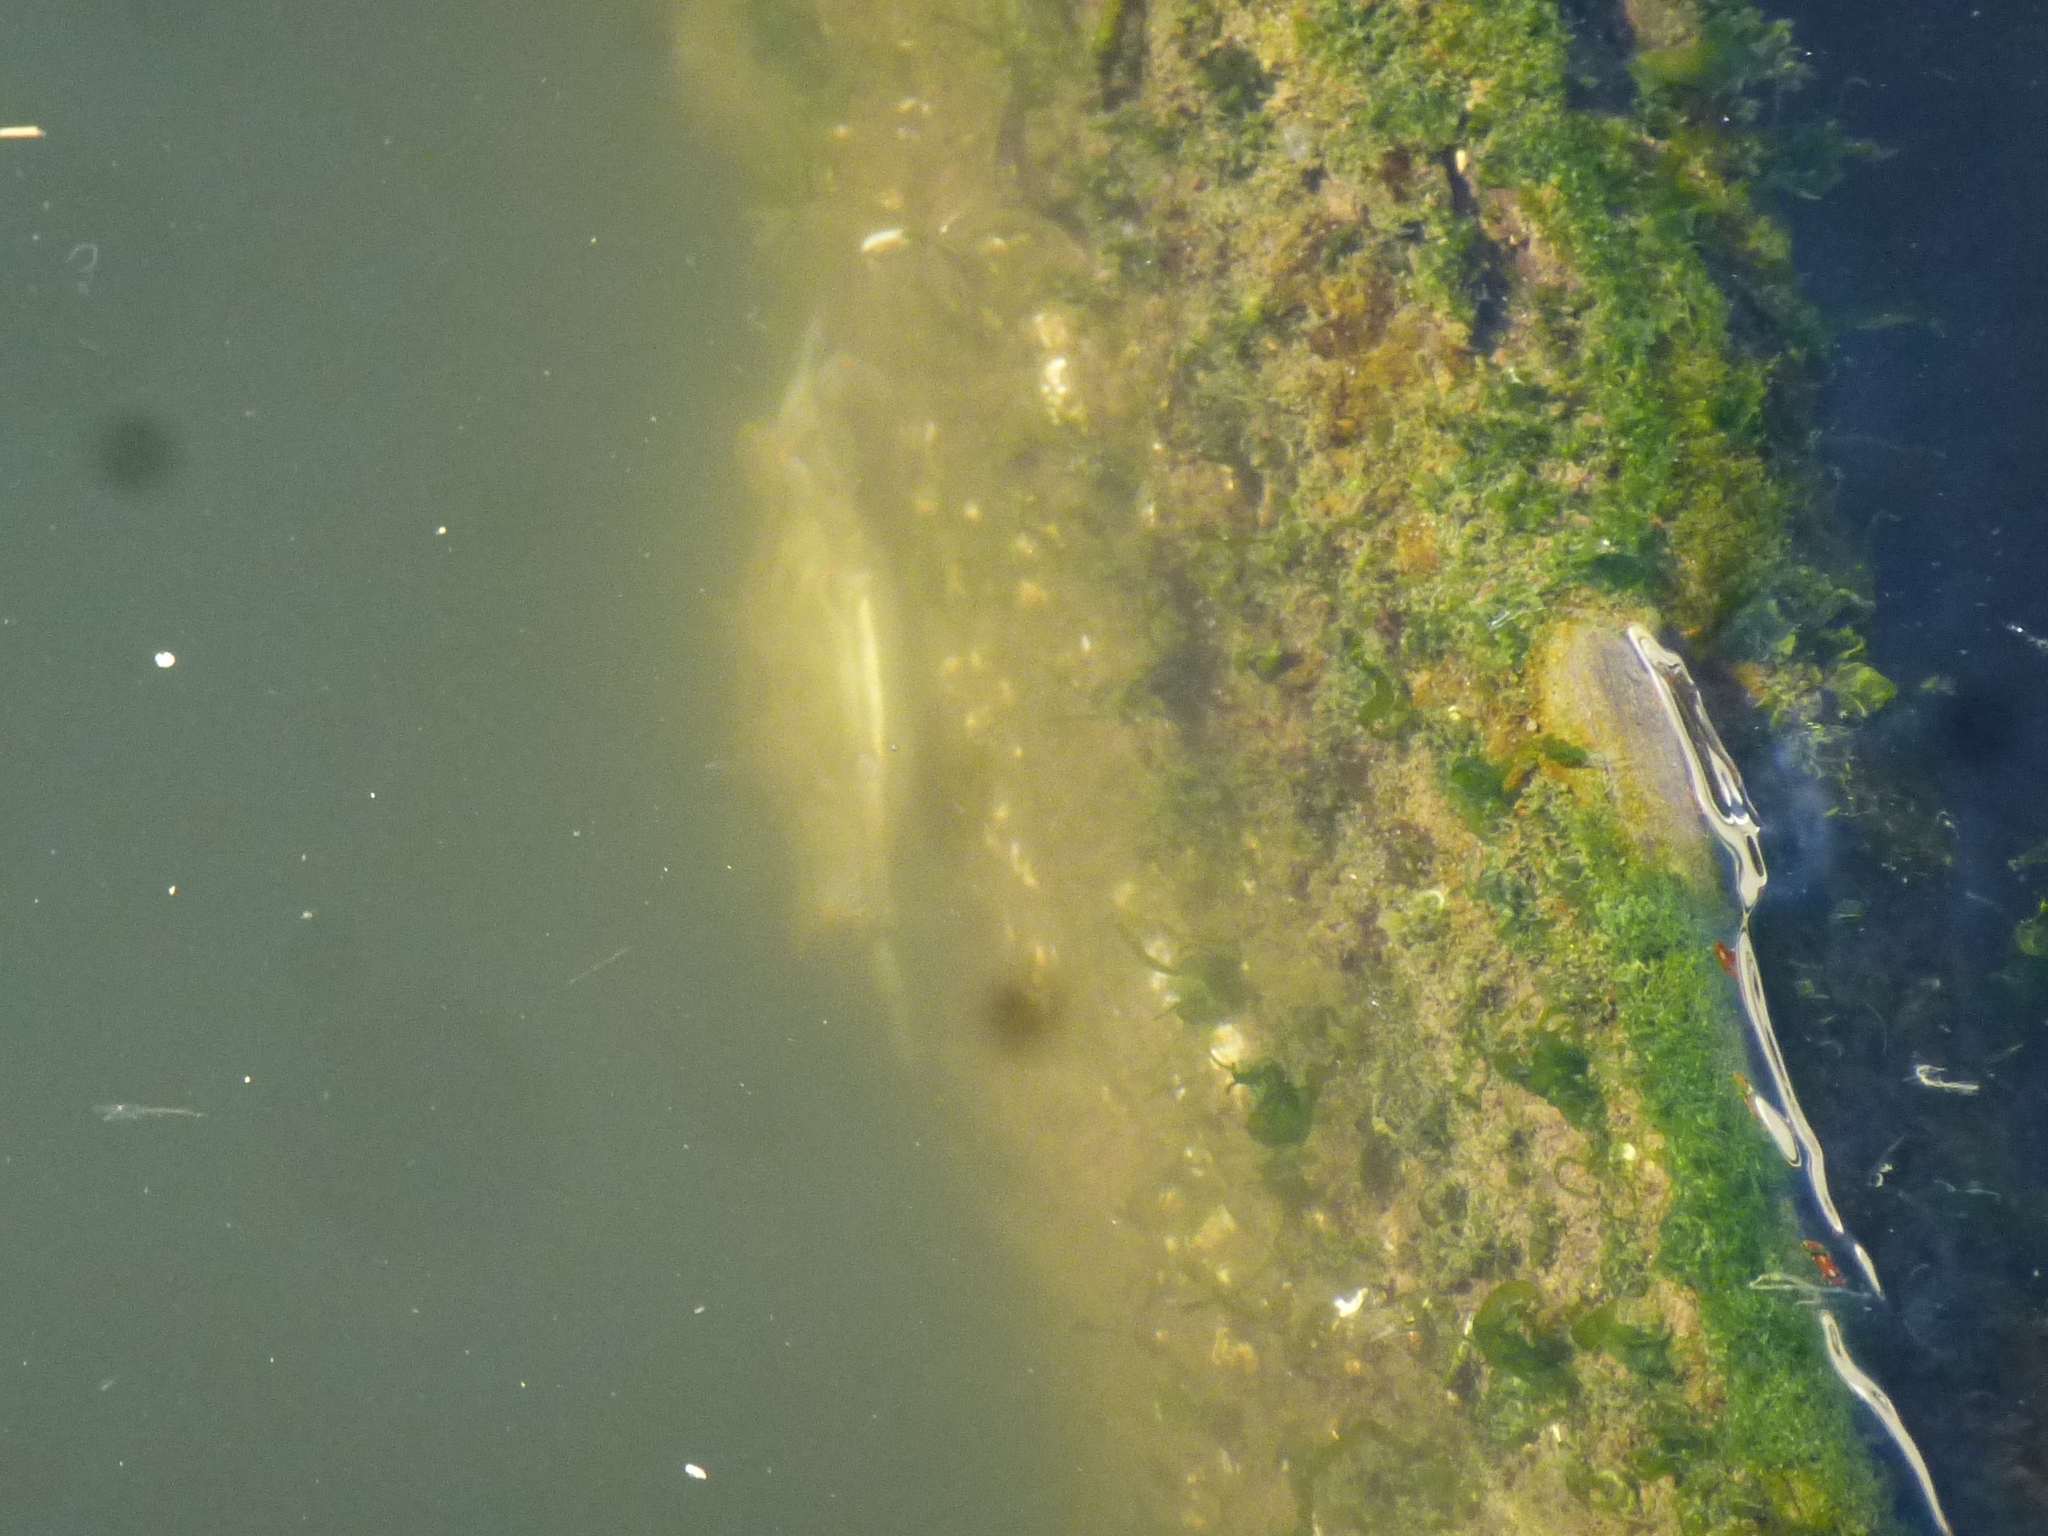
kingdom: Animalia
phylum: Arthropoda
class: Malacostraca
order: Decapoda
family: Portunidae
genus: Callinectes
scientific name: Callinectes sapidus
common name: Blue crab
